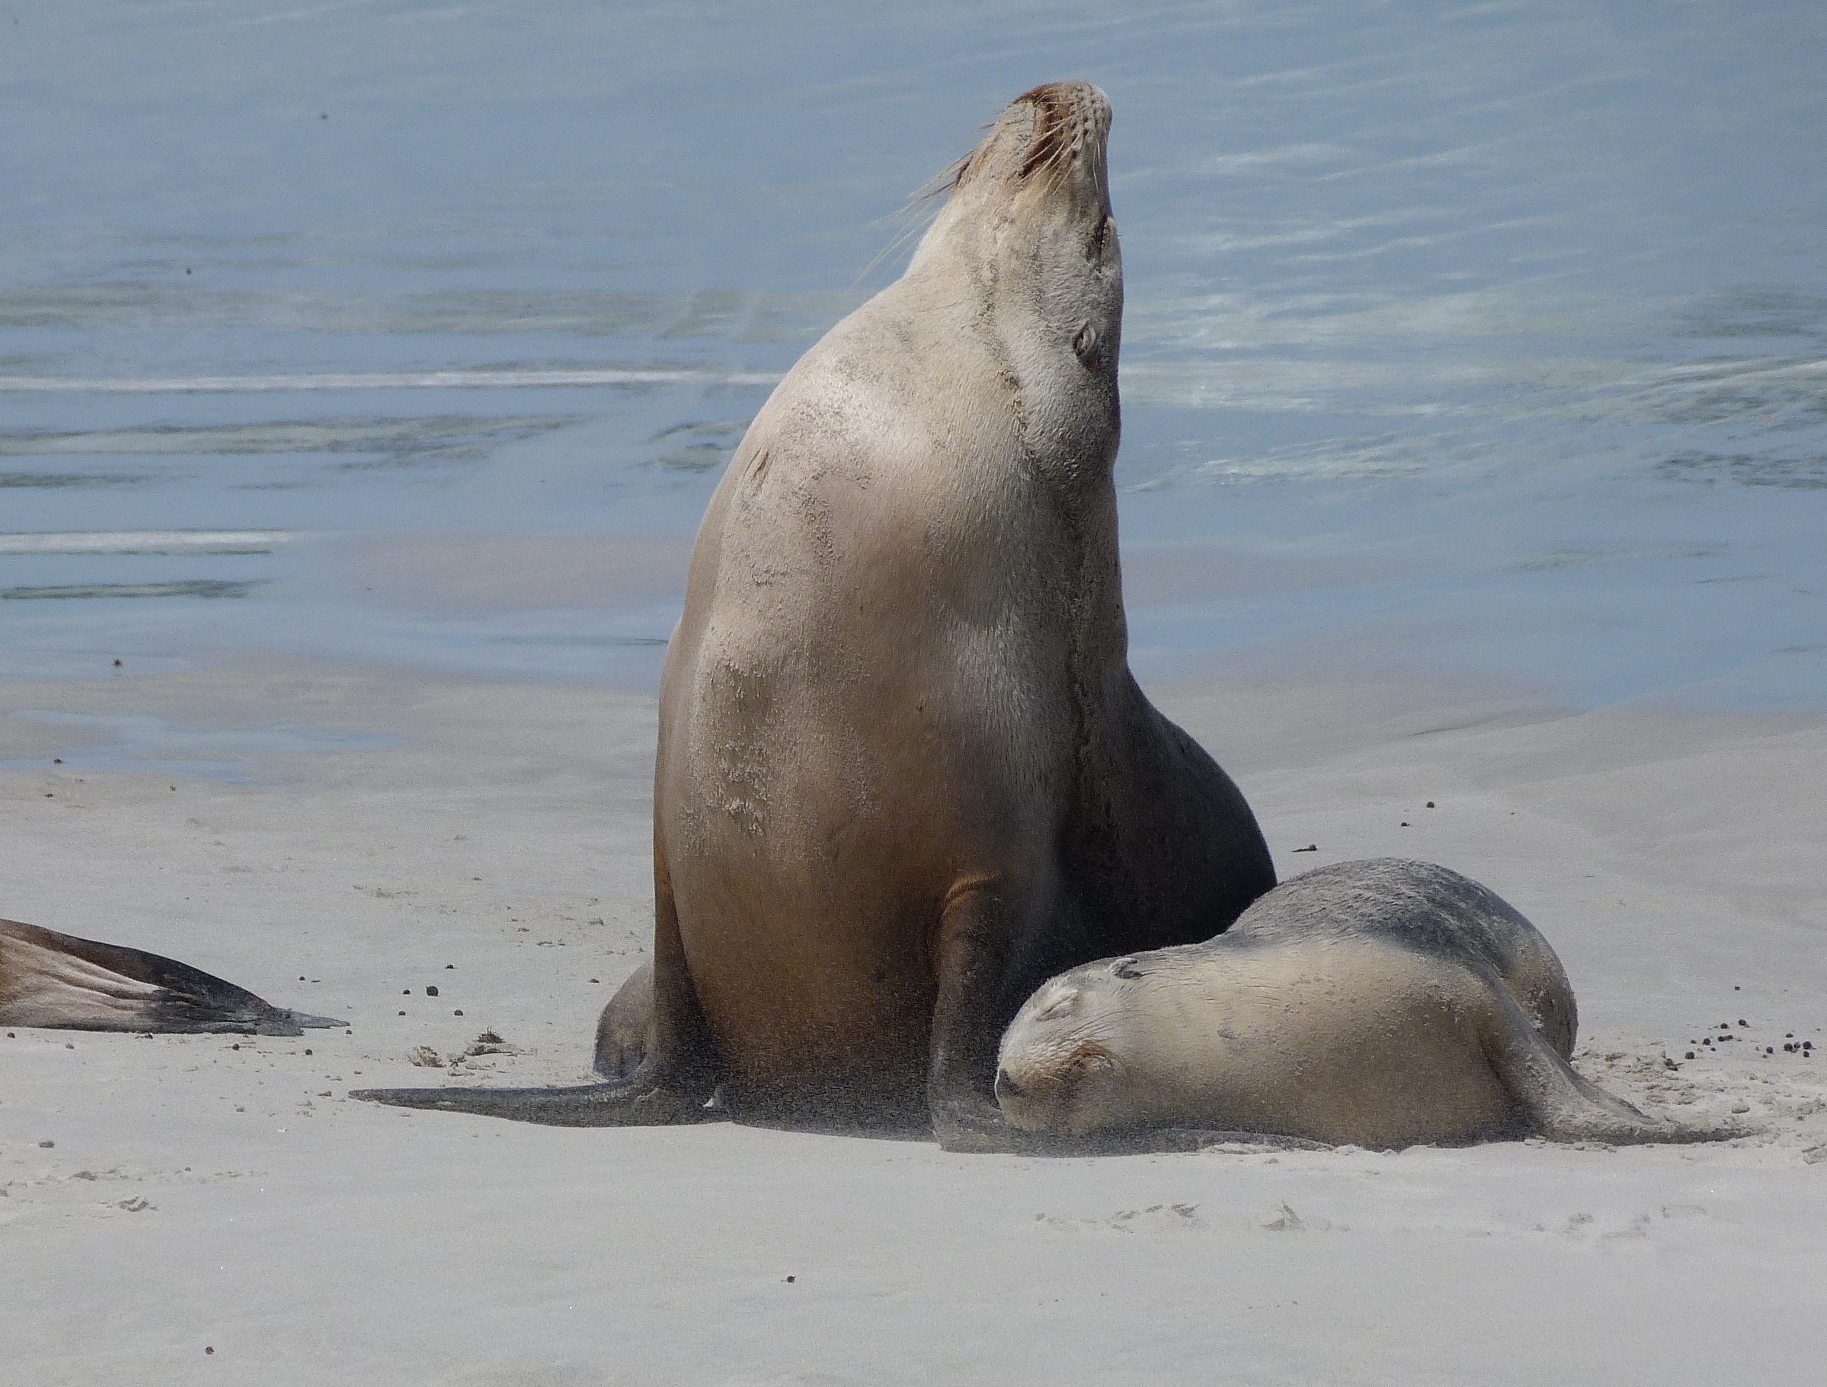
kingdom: Animalia
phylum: Chordata
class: Mammalia
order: Carnivora
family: Otariidae
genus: Neophoca
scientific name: Neophoca cinerea
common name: Australian sea lion
